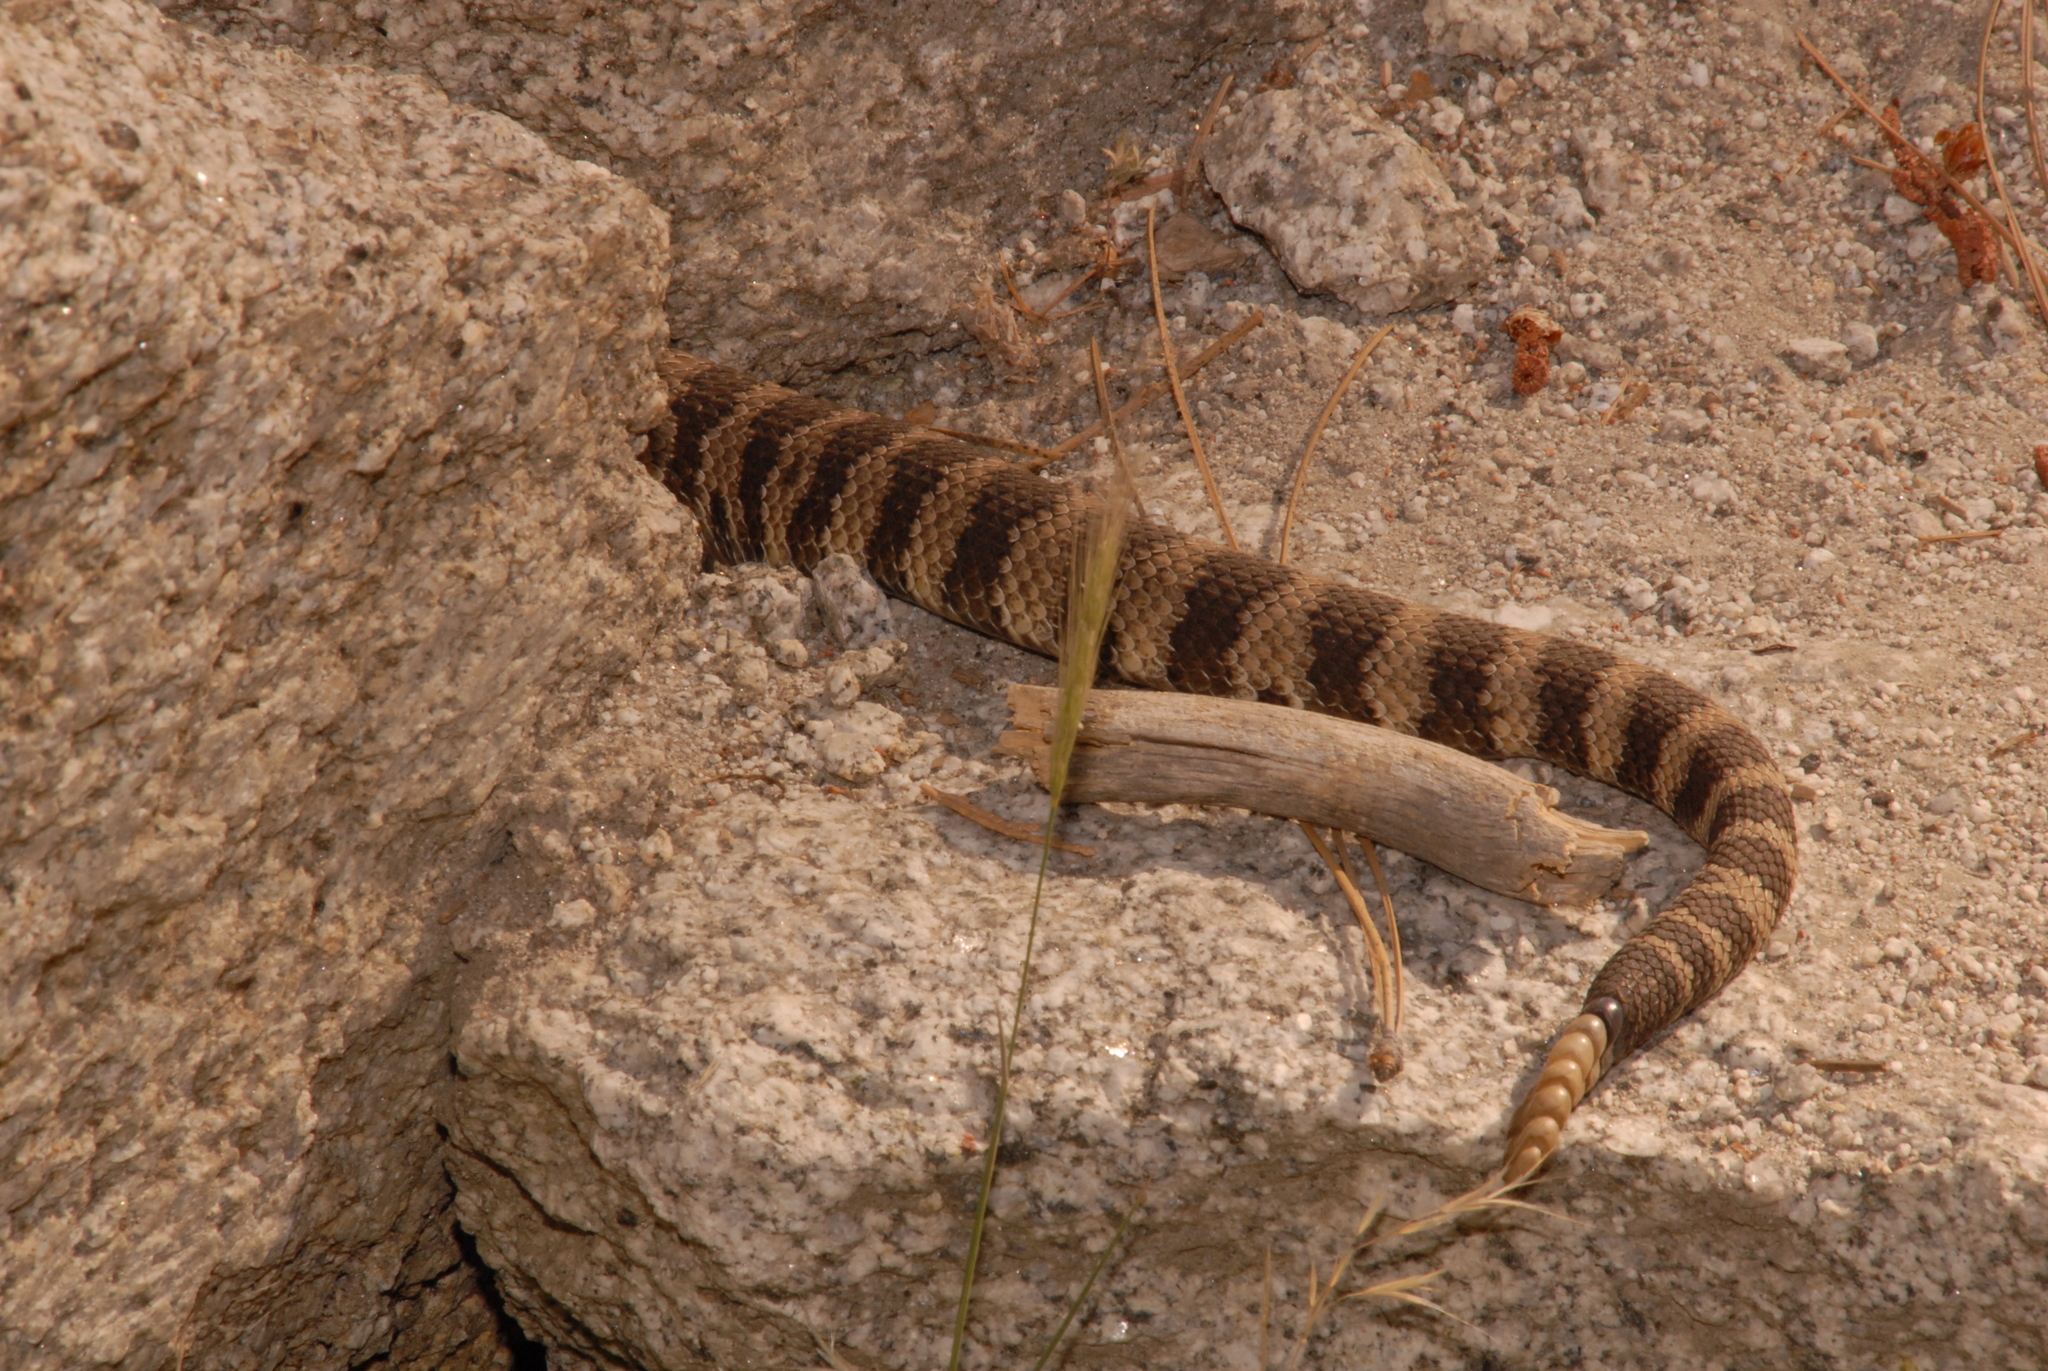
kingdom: Animalia
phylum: Chordata
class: Squamata
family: Viperidae
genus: Crotalus
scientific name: Crotalus oreganus
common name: Abyssus
